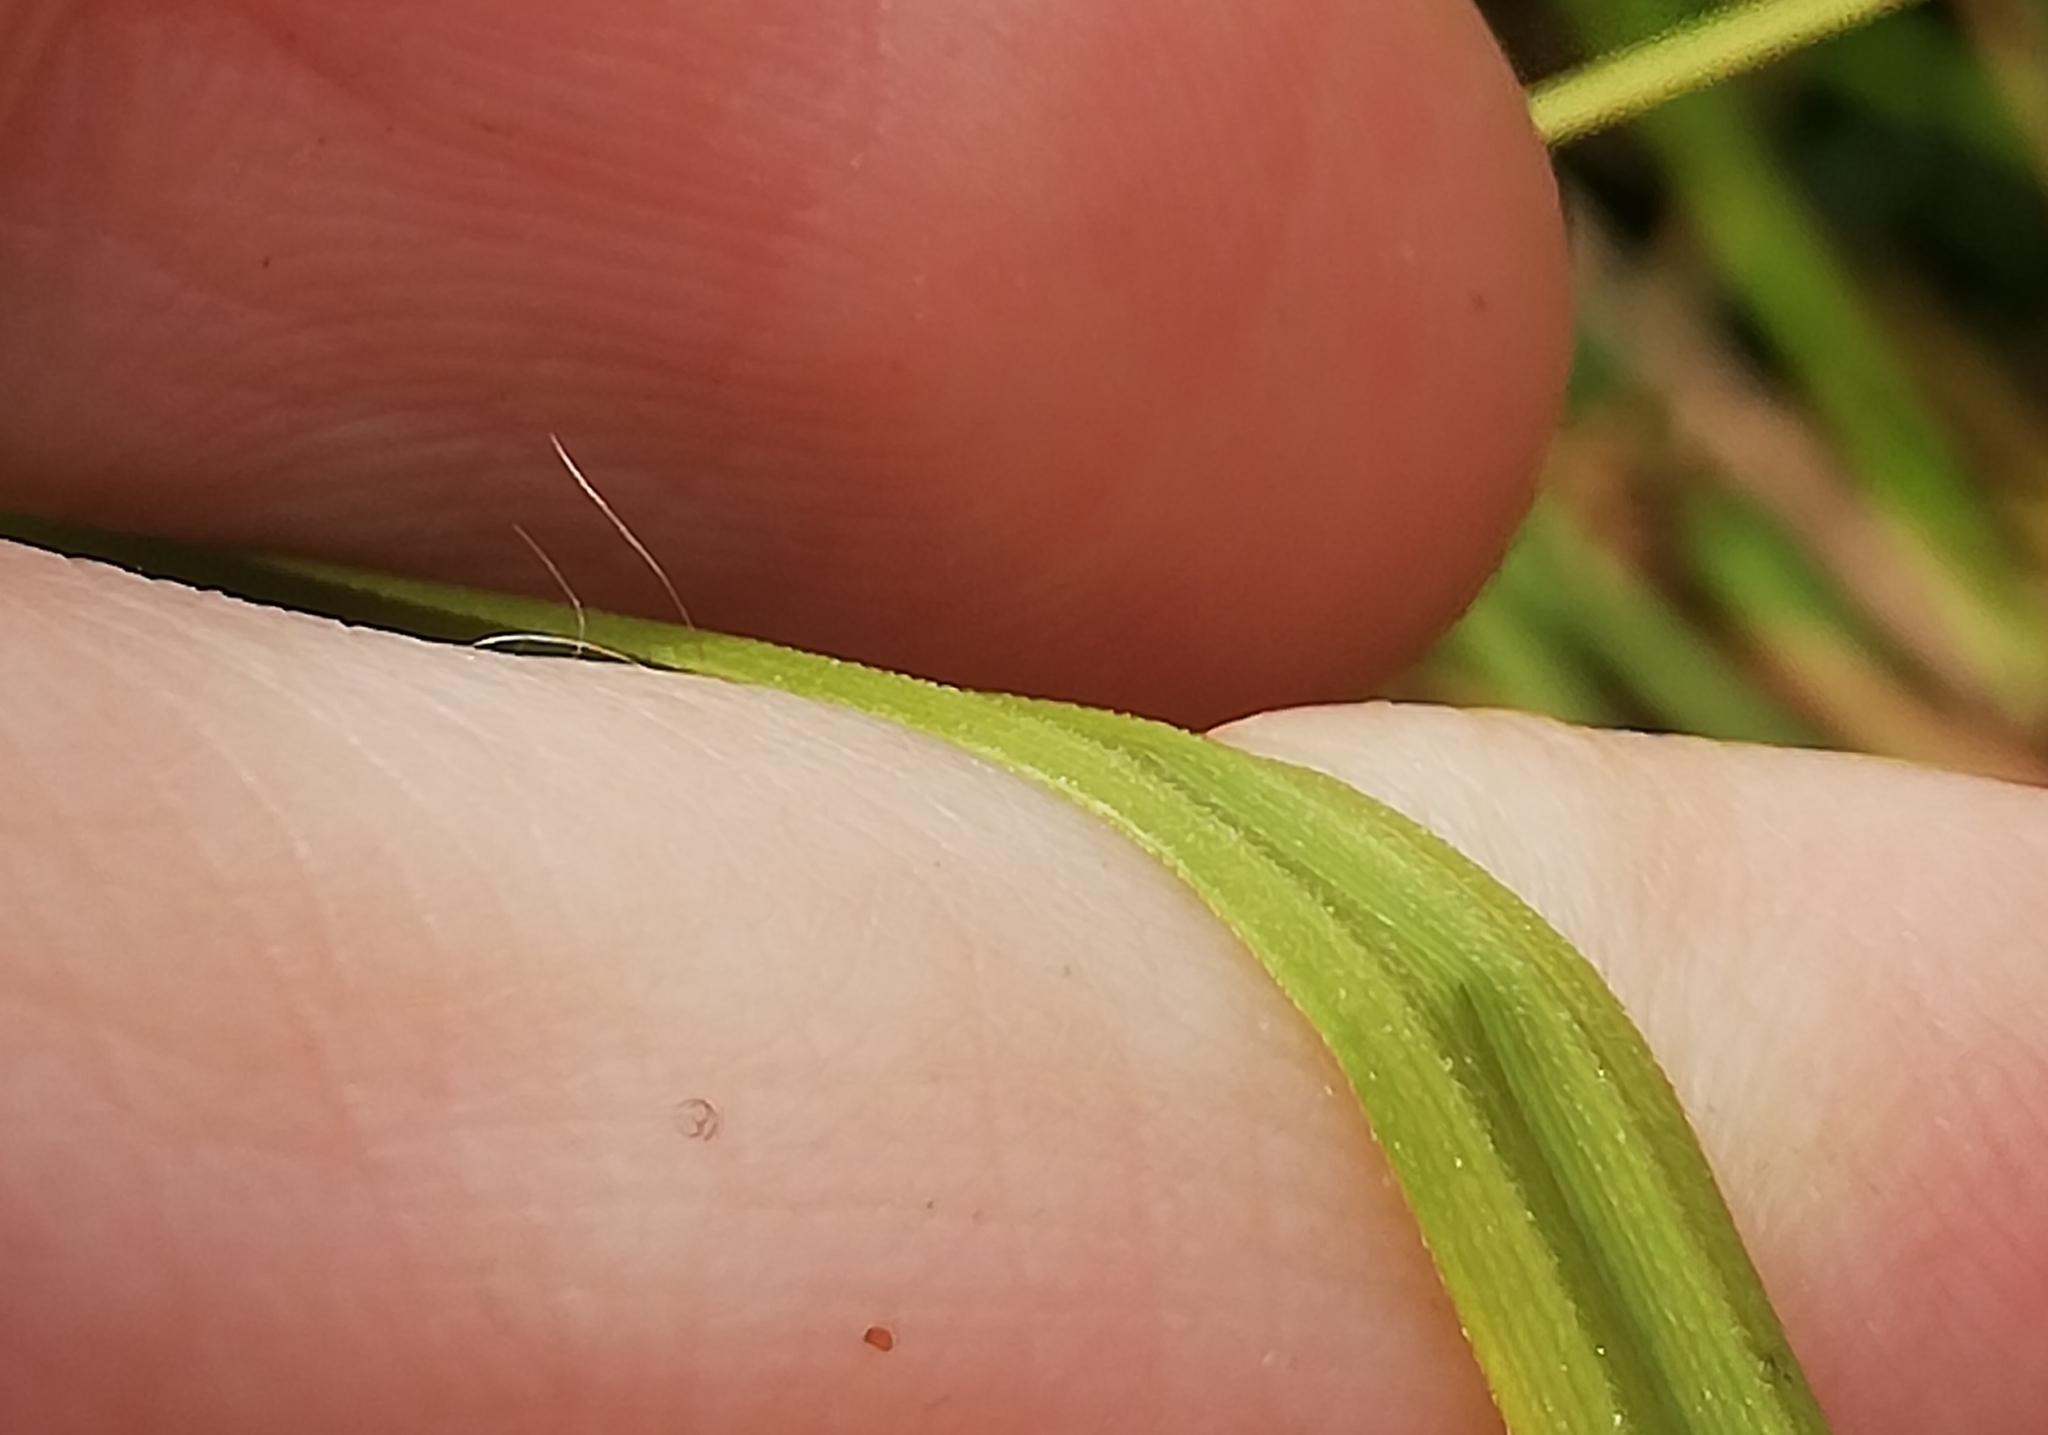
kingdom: Plantae
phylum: Tracheophyta
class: Liliopsida
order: Poales
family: Cyperaceae
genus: Carex
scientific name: Carex pseudocyperus
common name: Cyperus sedge
